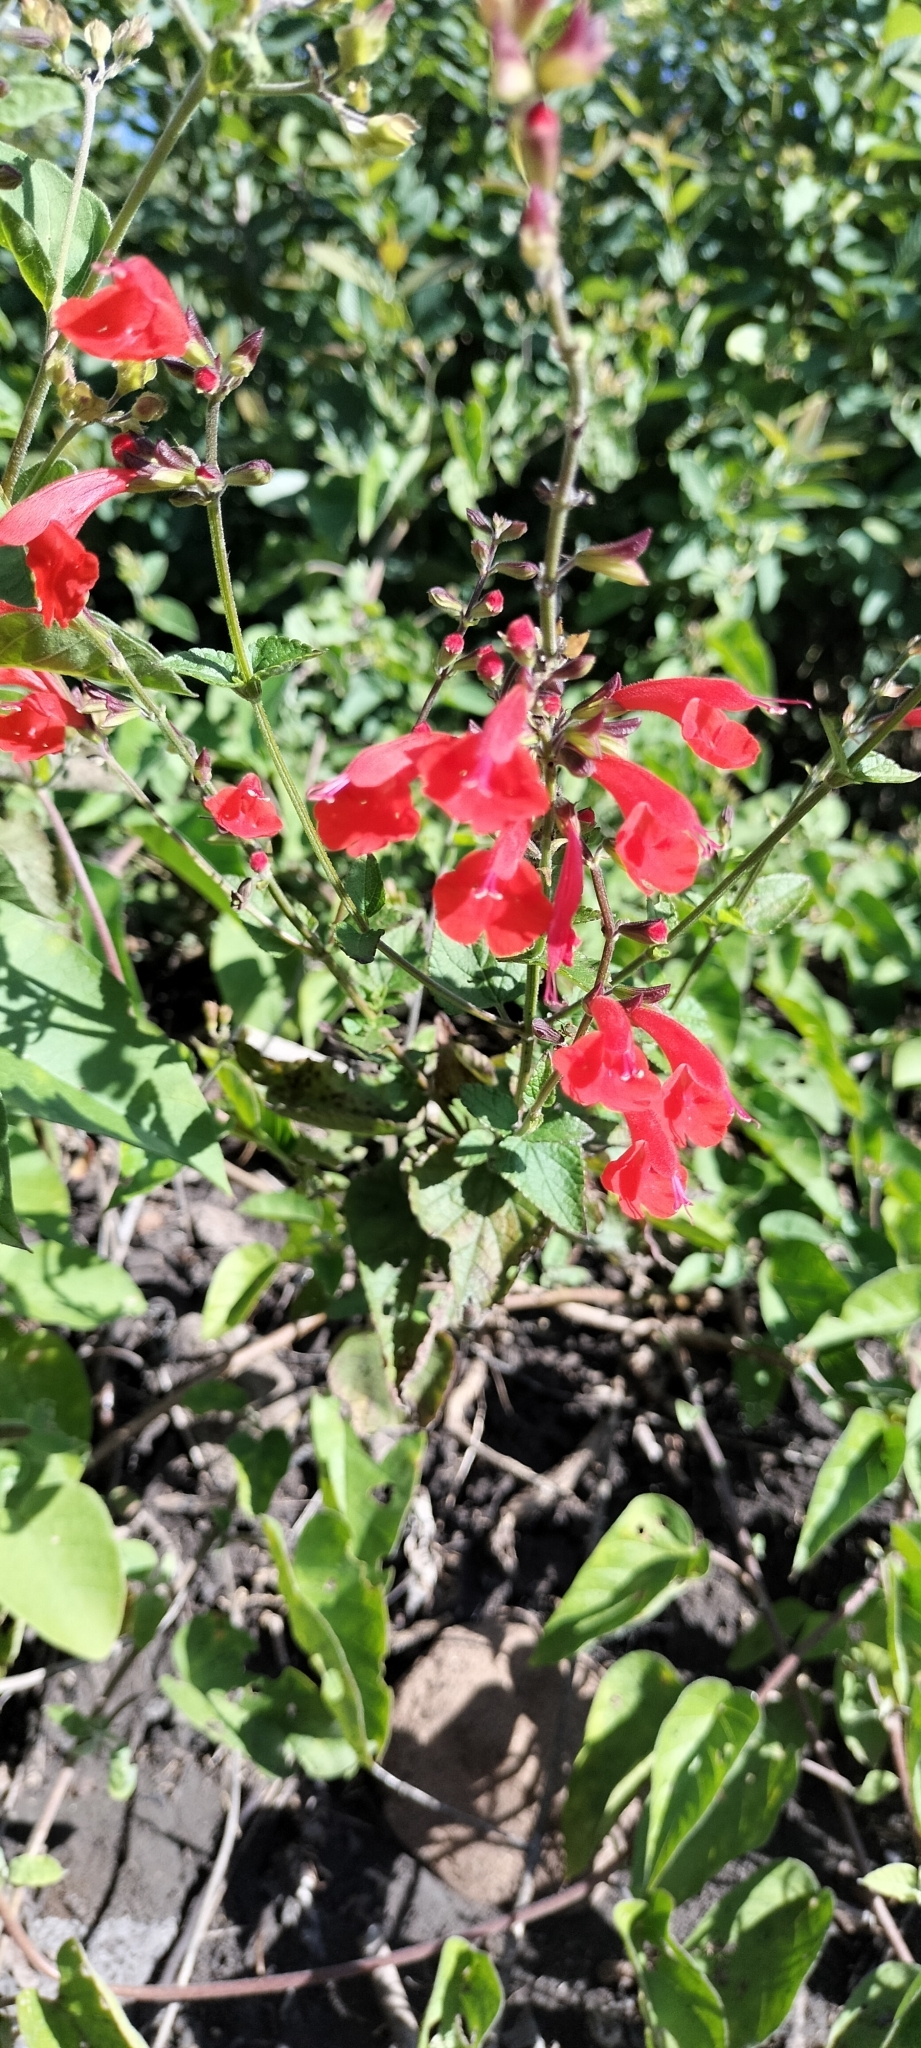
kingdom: Plantae
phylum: Tracheophyta
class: Magnoliopsida
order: Lamiales
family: Lamiaceae
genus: Salvia
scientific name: Salvia coccinea
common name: Blood sage
